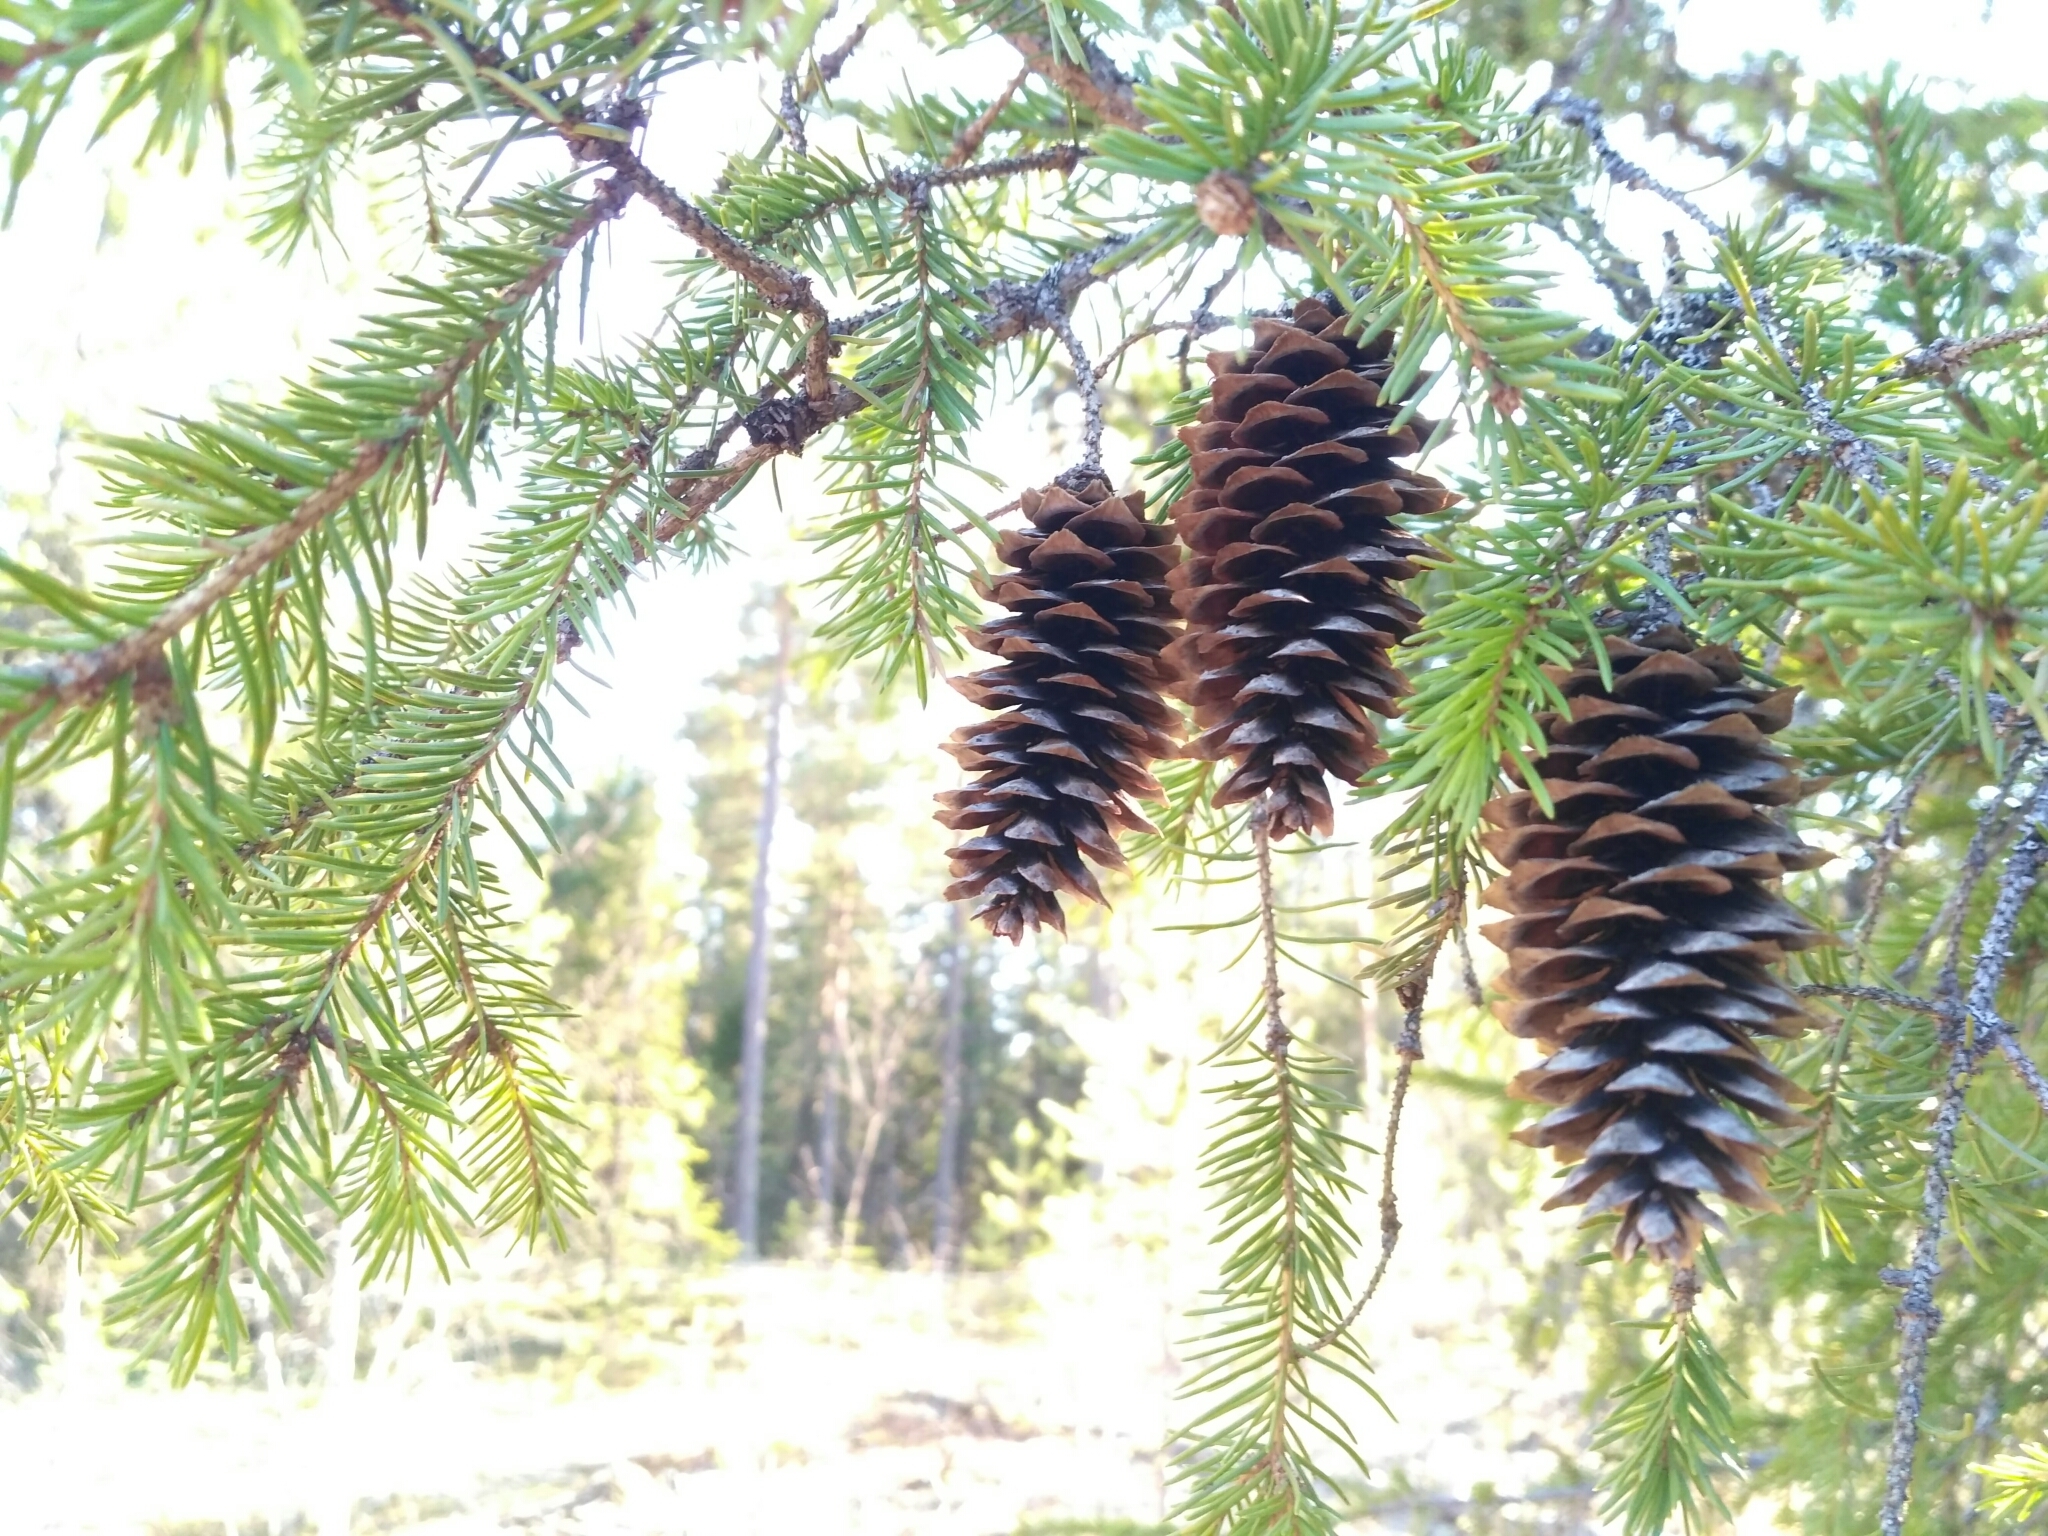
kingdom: Plantae
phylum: Tracheophyta
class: Pinopsida
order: Pinales
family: Pinaceae
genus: Picea
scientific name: Picea abies
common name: Norway spruce
